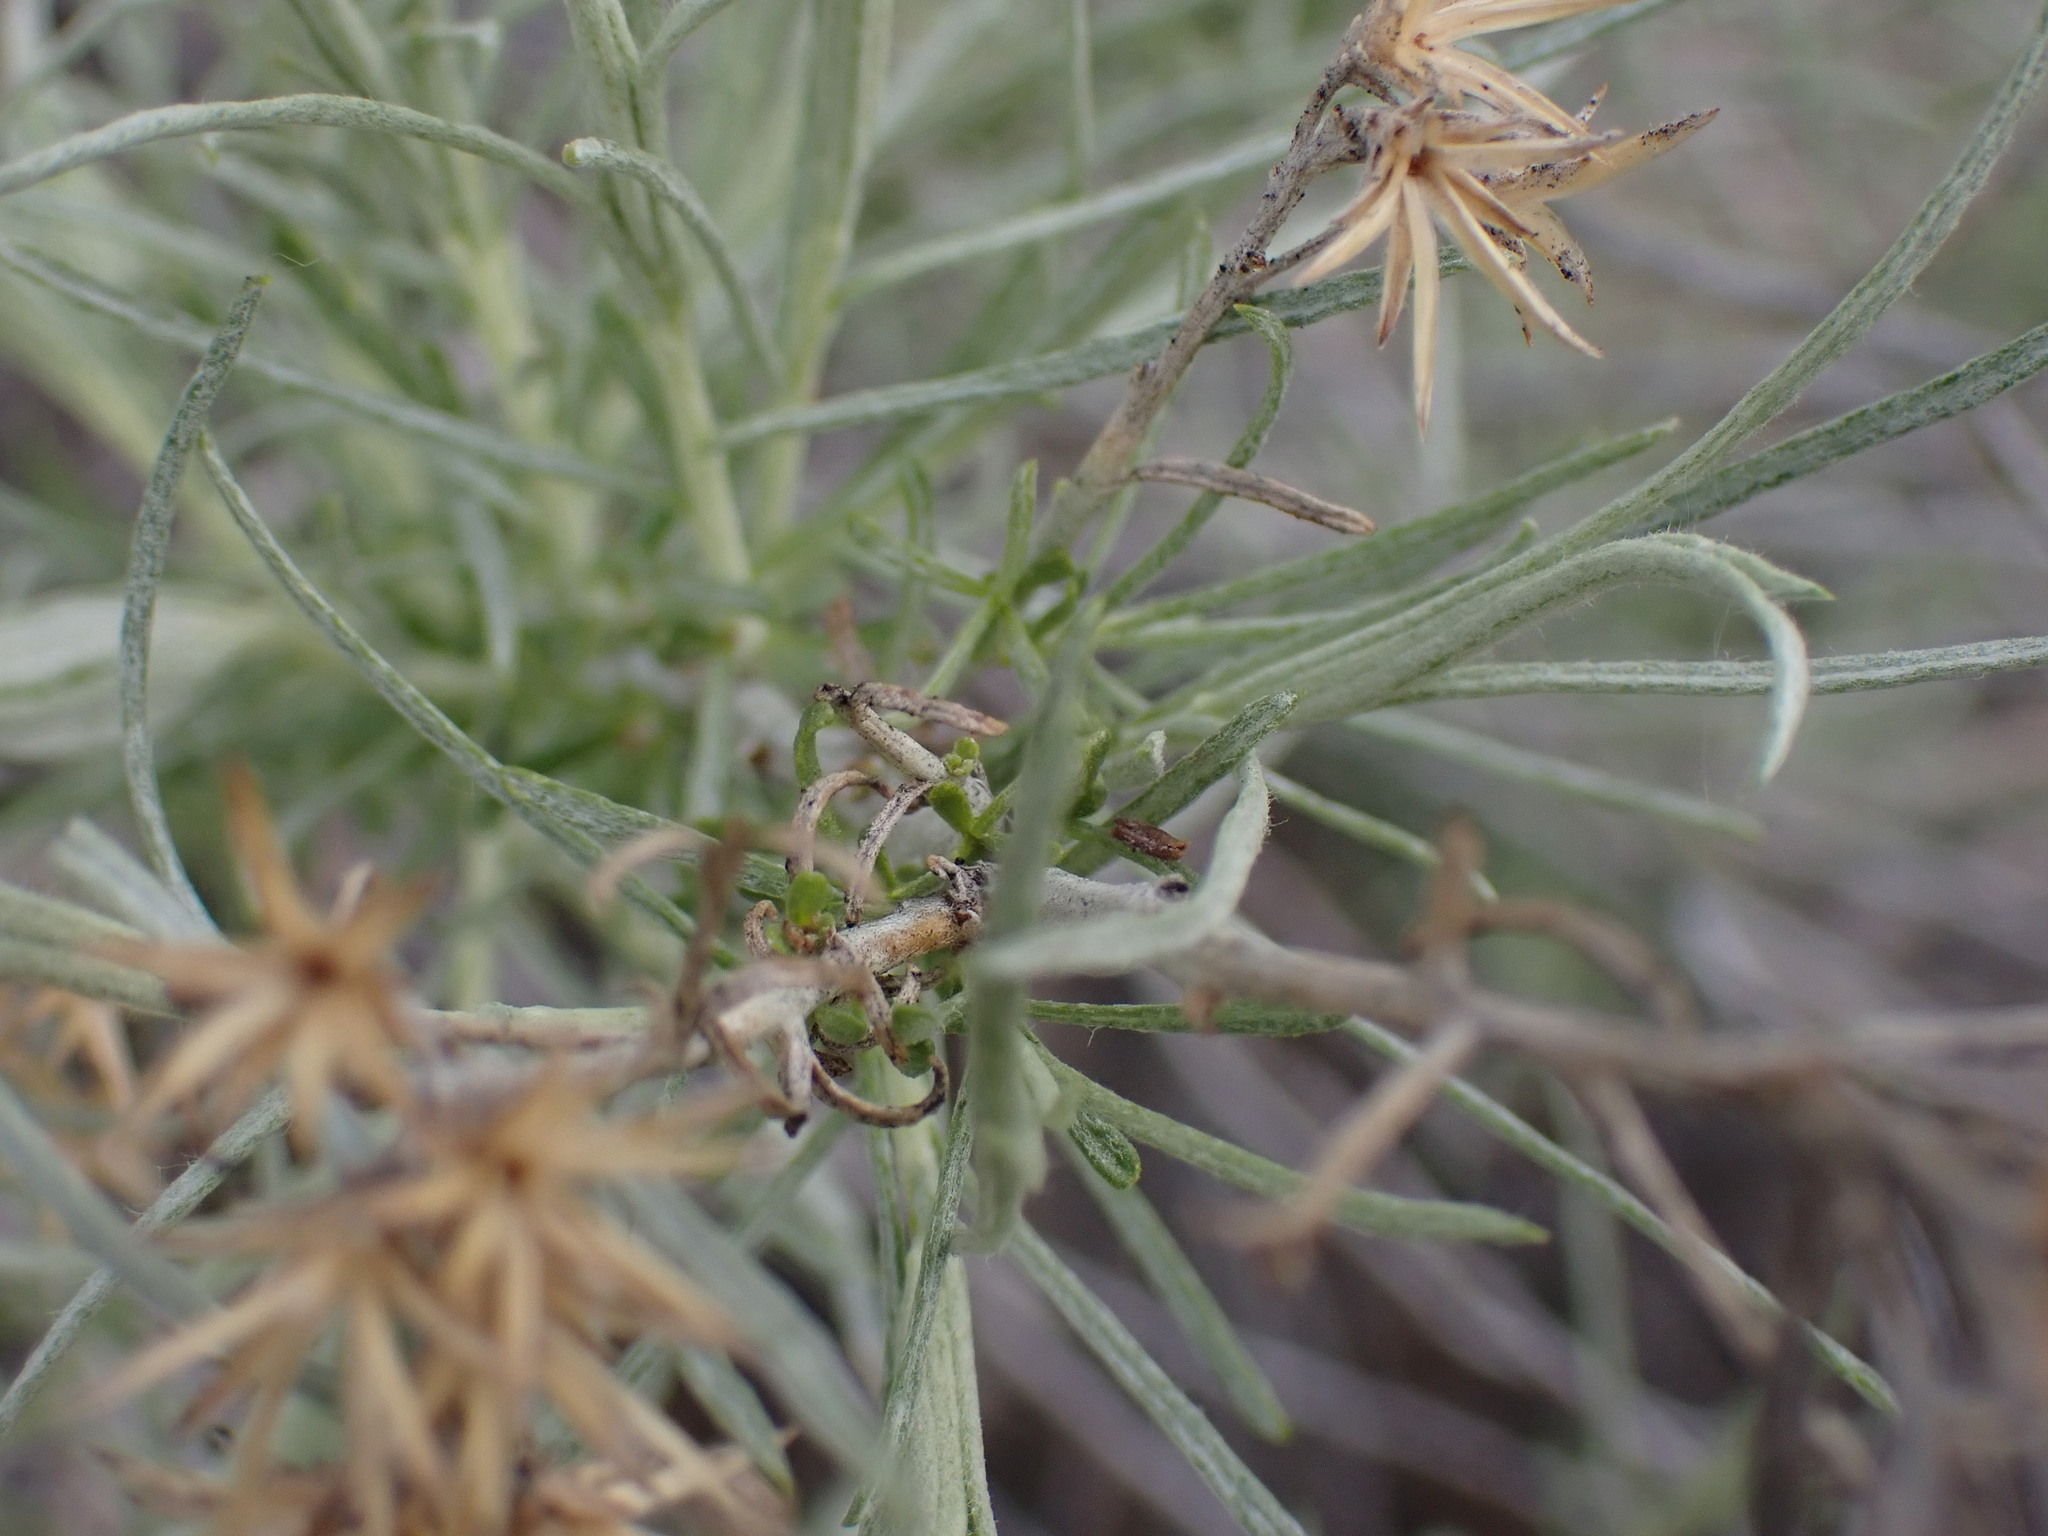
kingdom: Plantae
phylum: Tracheophyta
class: Magnoliopsida
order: Asterales
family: Asteraceae
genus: Ericameria
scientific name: Ericameria nauseosa
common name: Rubber rabbitbrush
